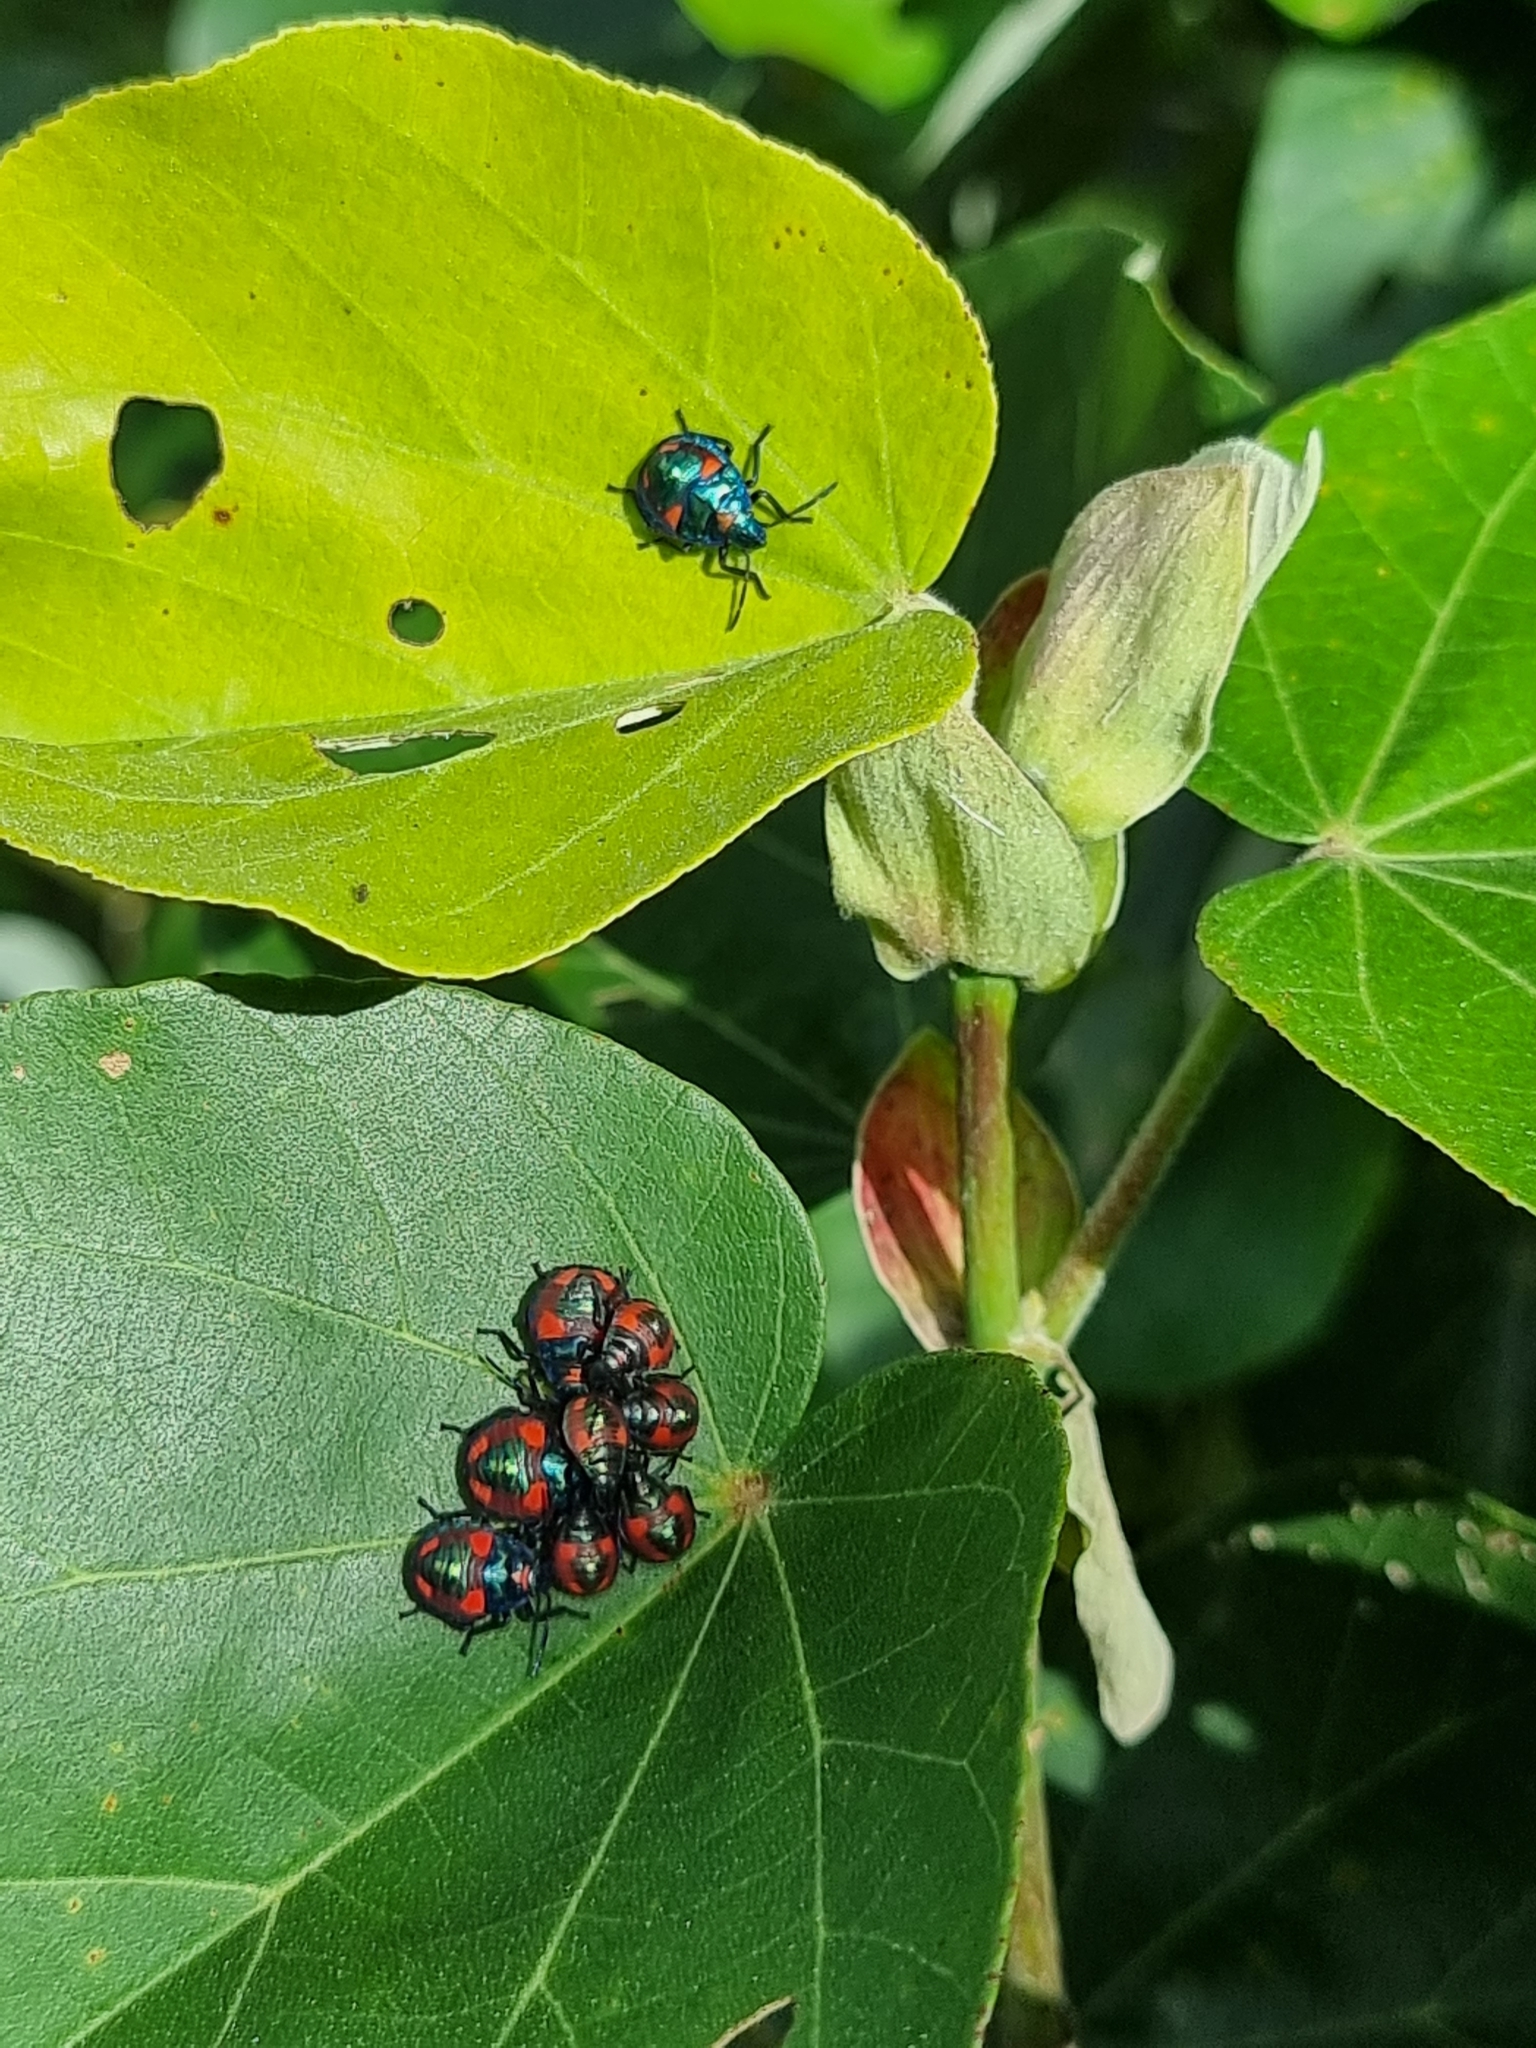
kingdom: Animalia
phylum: Arthropoda
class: Insecta
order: Hemiptera
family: Scutelleridae
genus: Tectocoris
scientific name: Tectocoris diophthalmus
